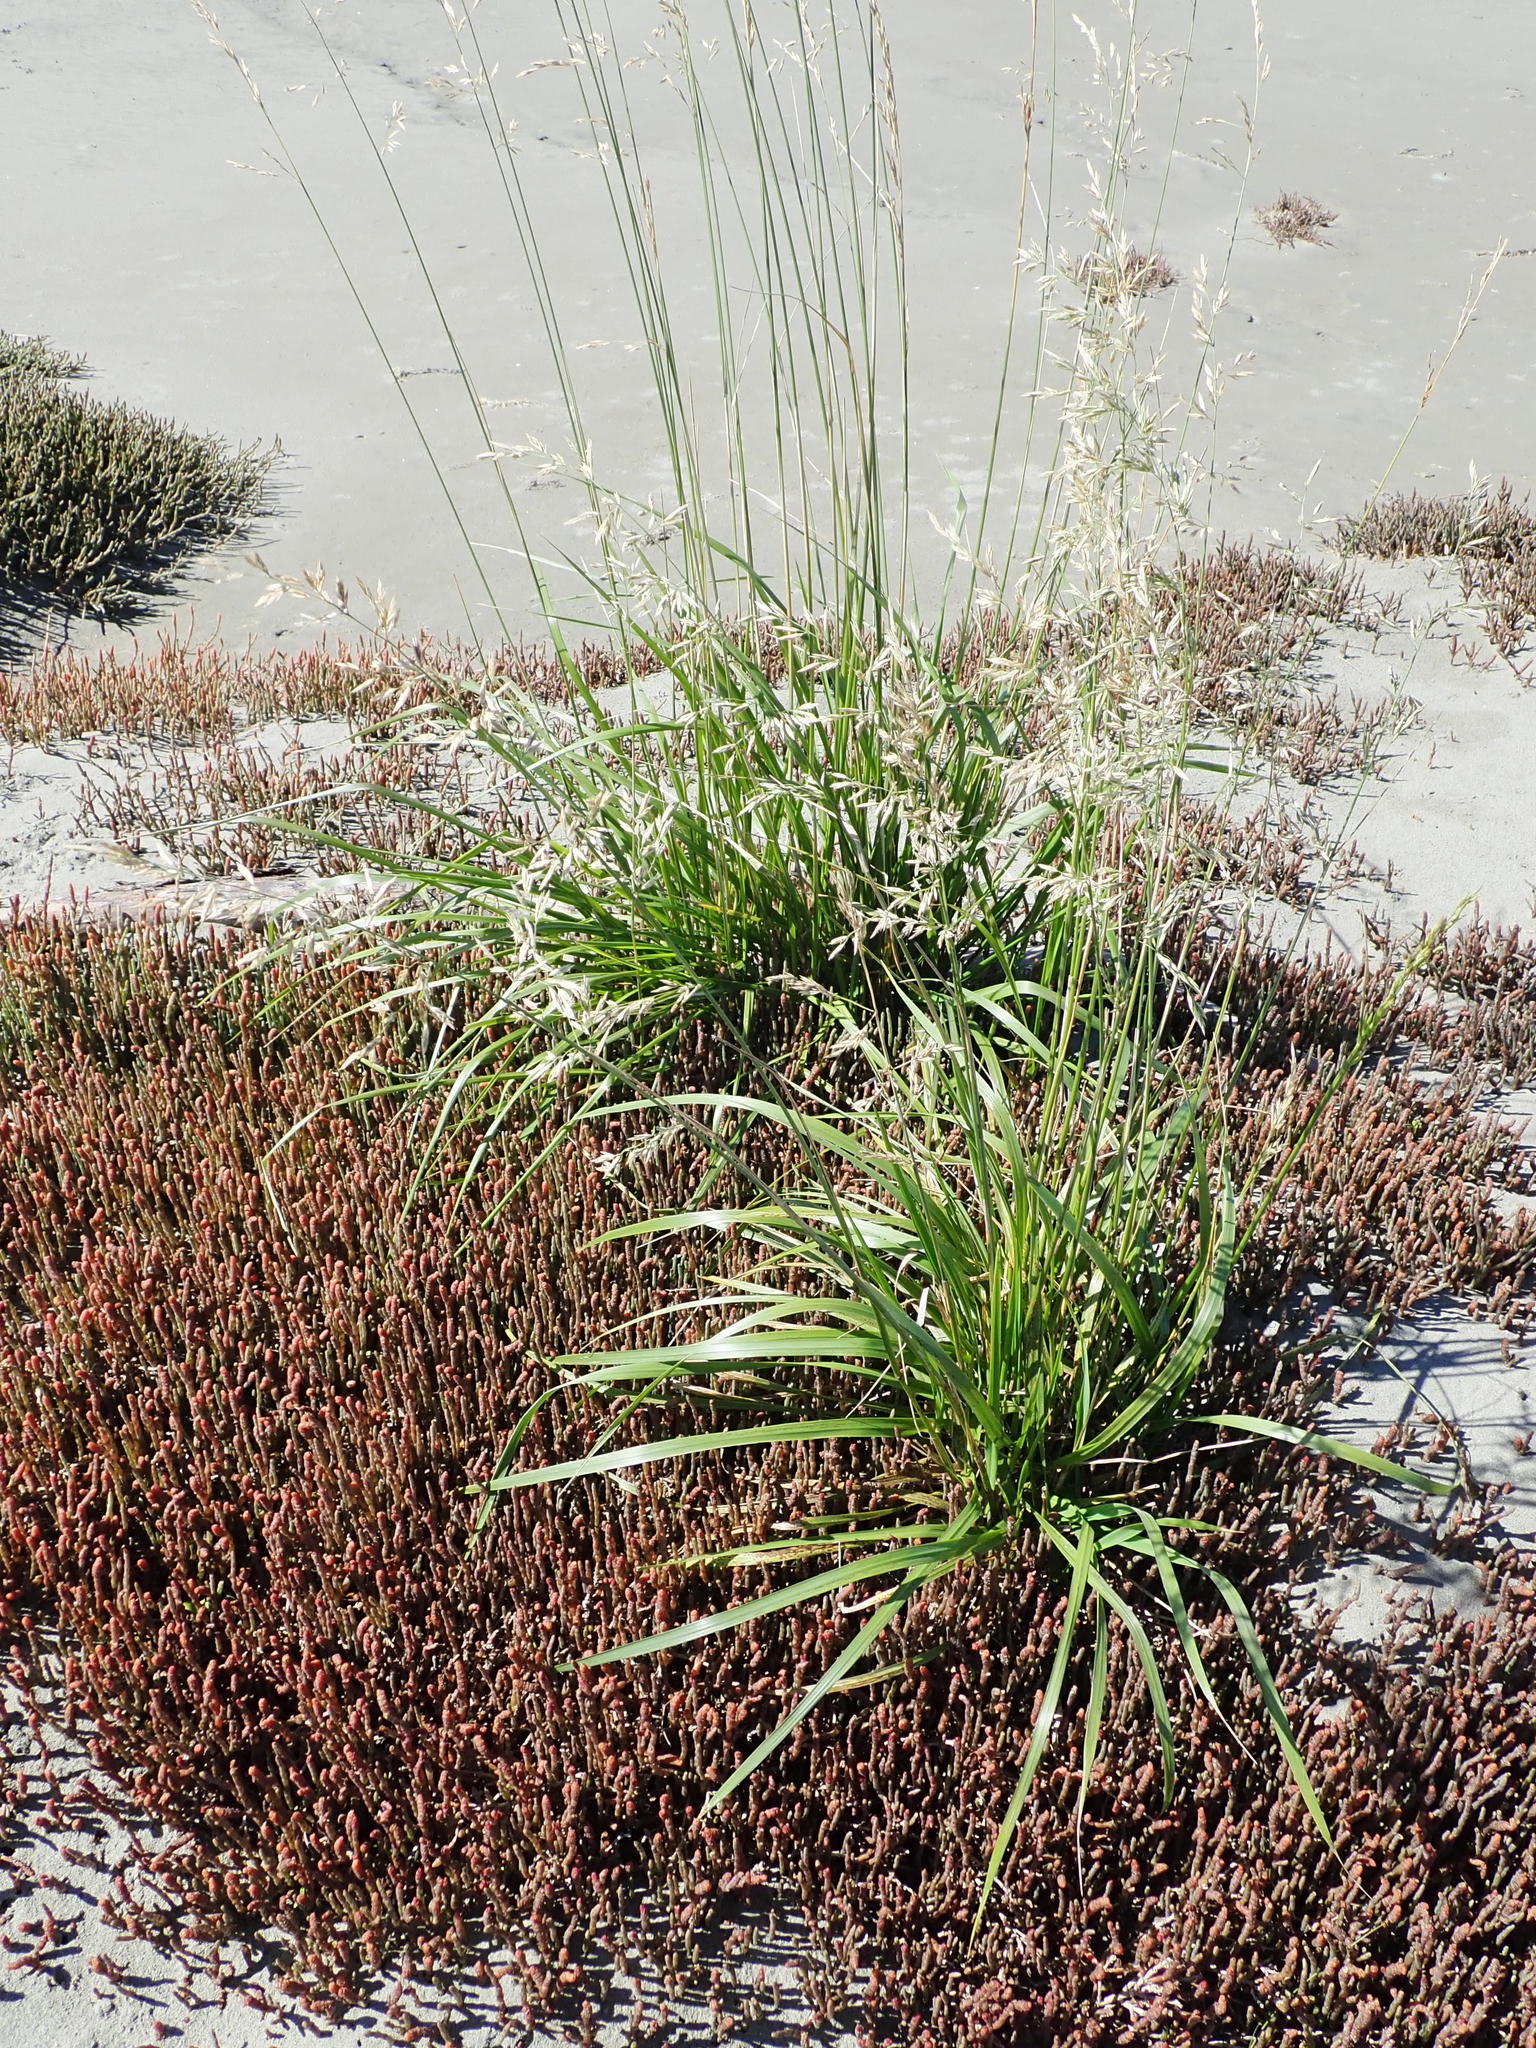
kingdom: Plantae
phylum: Tracheophyta
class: Liliopsida
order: Poales
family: Poaceae
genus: Lolium
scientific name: Lolium arundinaceum
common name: Reed fescue
